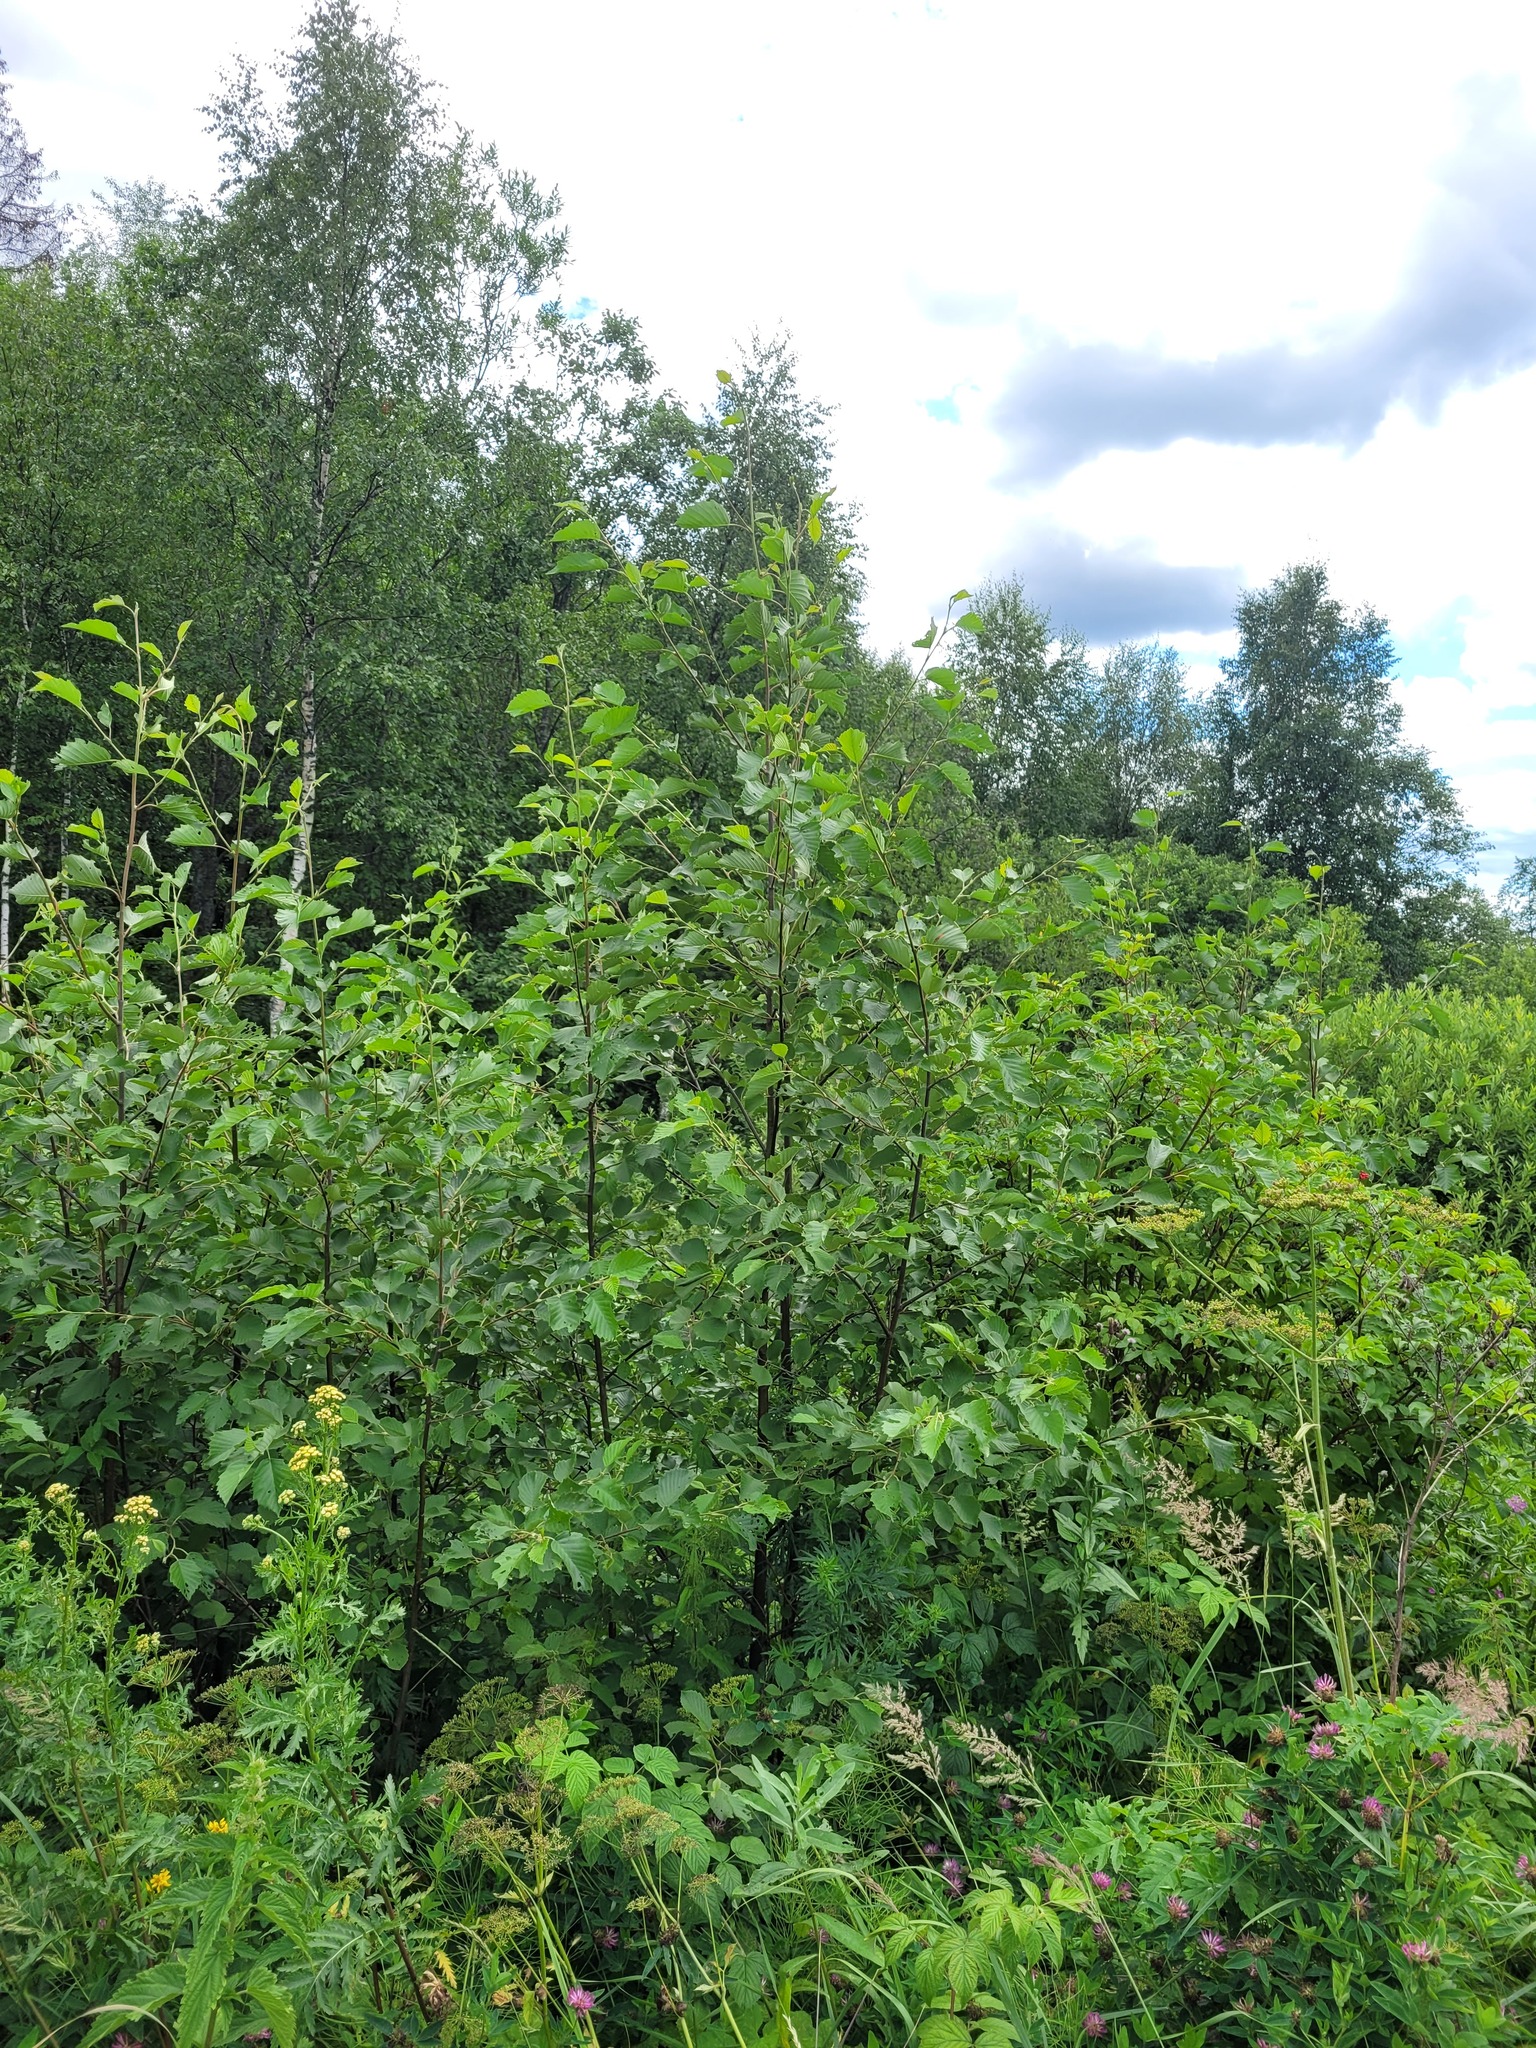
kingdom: Plantae
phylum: Tracheophyta
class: Magnoliopsida
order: Fagales
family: Betulaceae
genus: Alnus
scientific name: Alnus incana
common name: Grey alder
